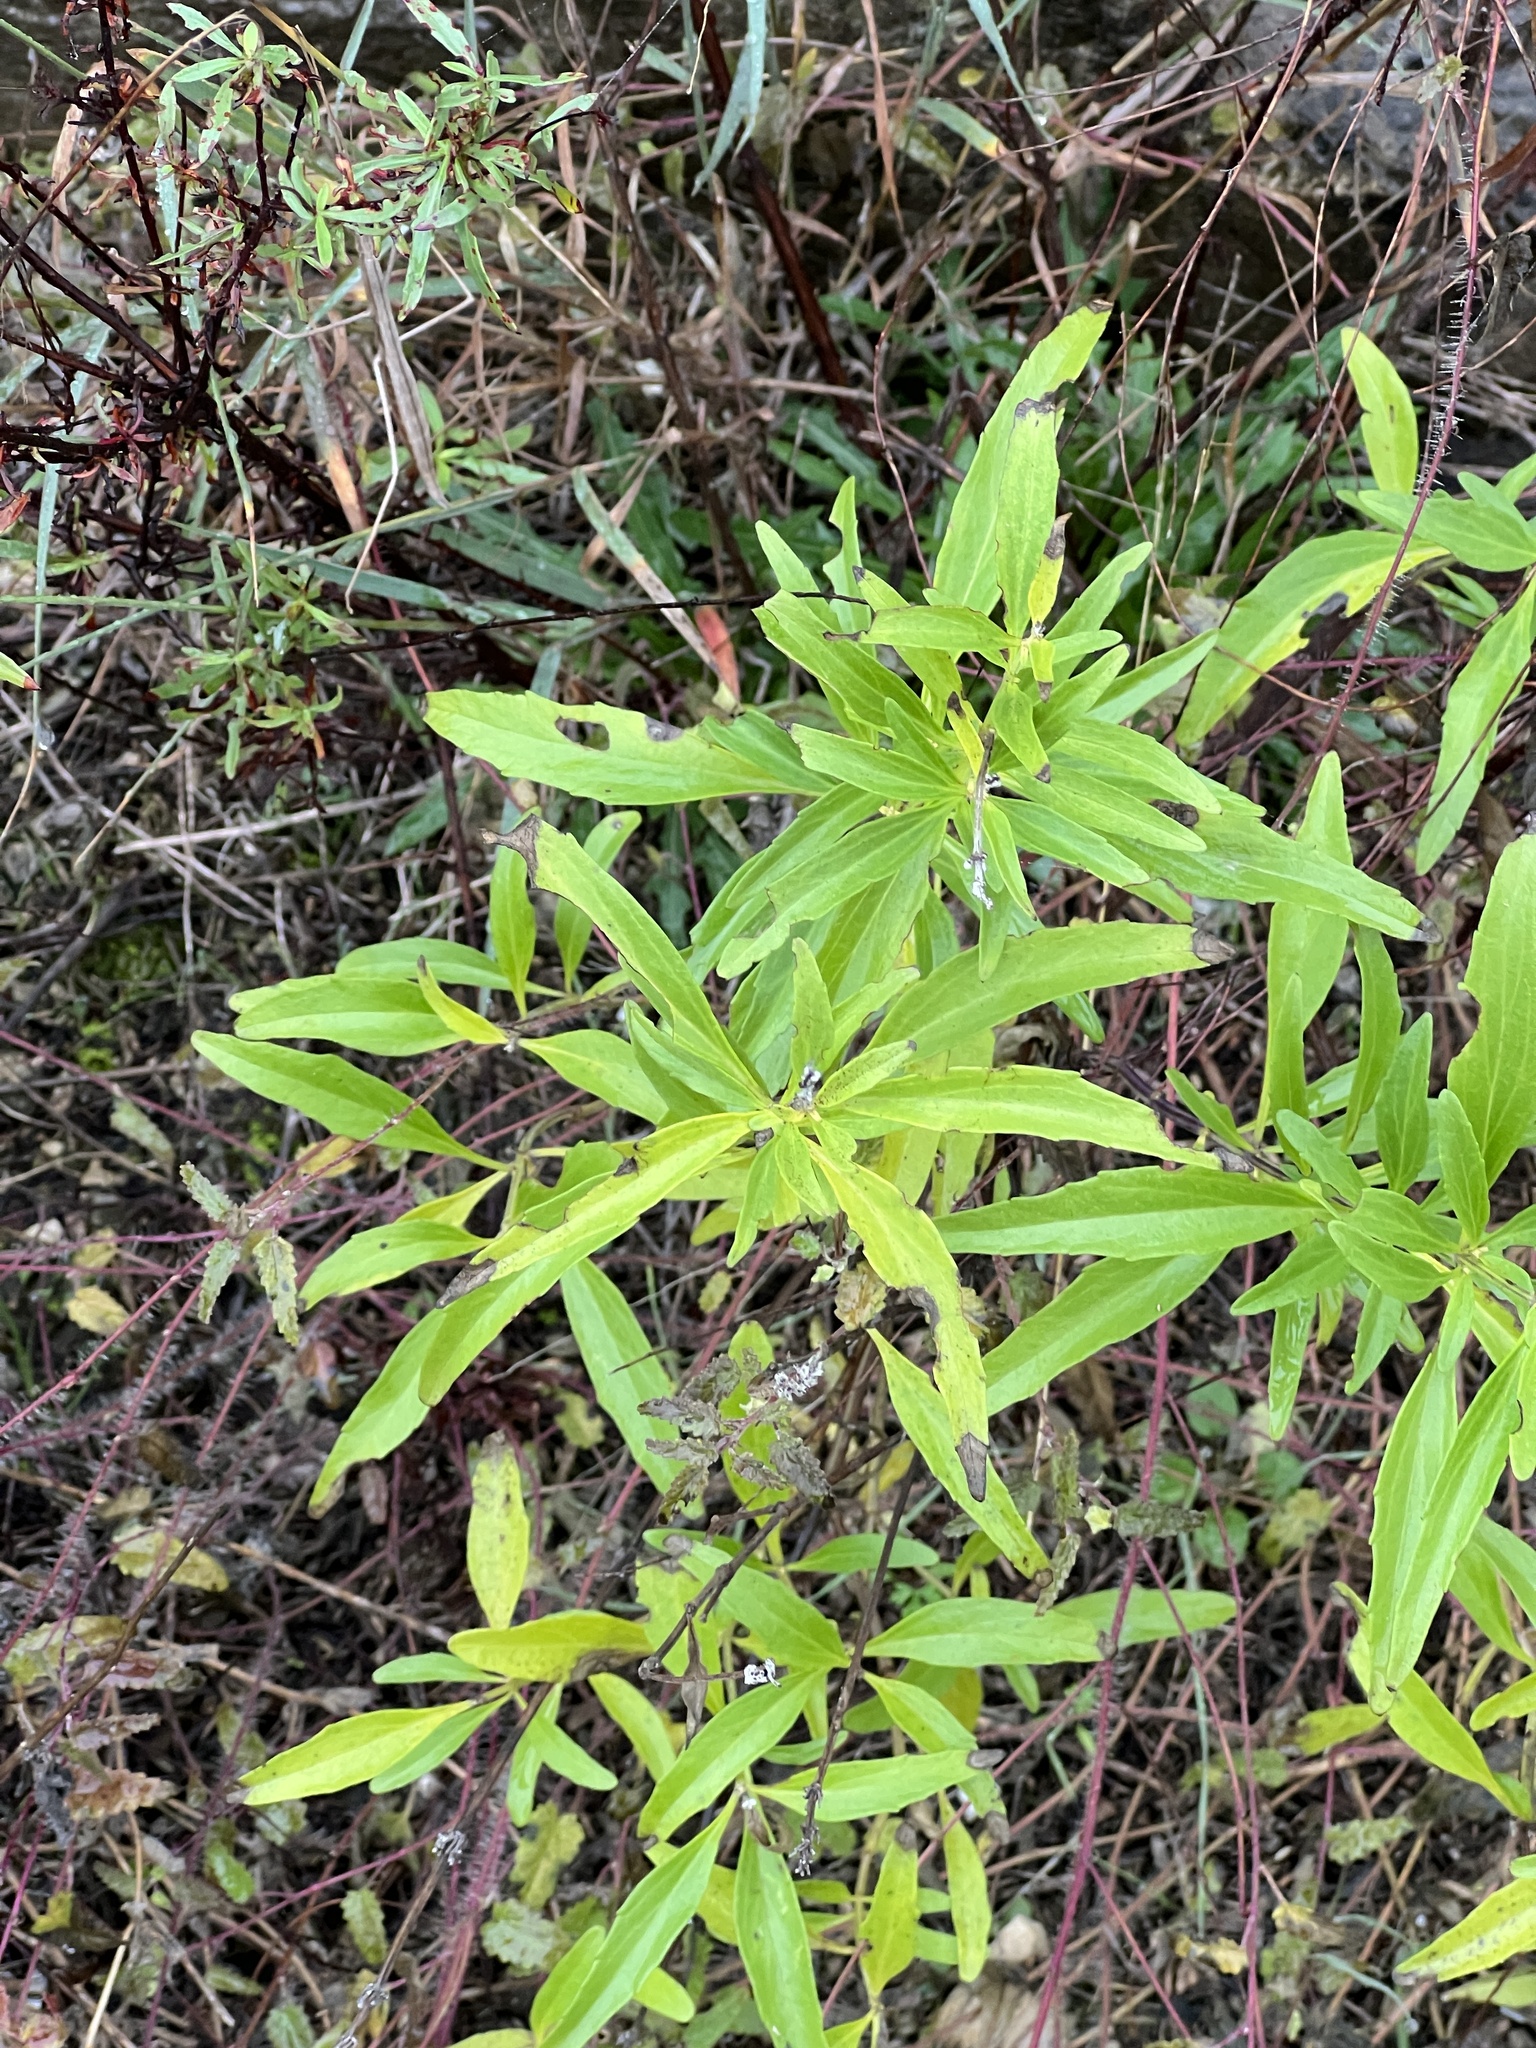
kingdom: Plantae
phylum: Tracheophyta
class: Magnoliopsida
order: Lamiales
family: Lamiaceae
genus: Salvia
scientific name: Salvia farinacea
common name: Mealy sage
